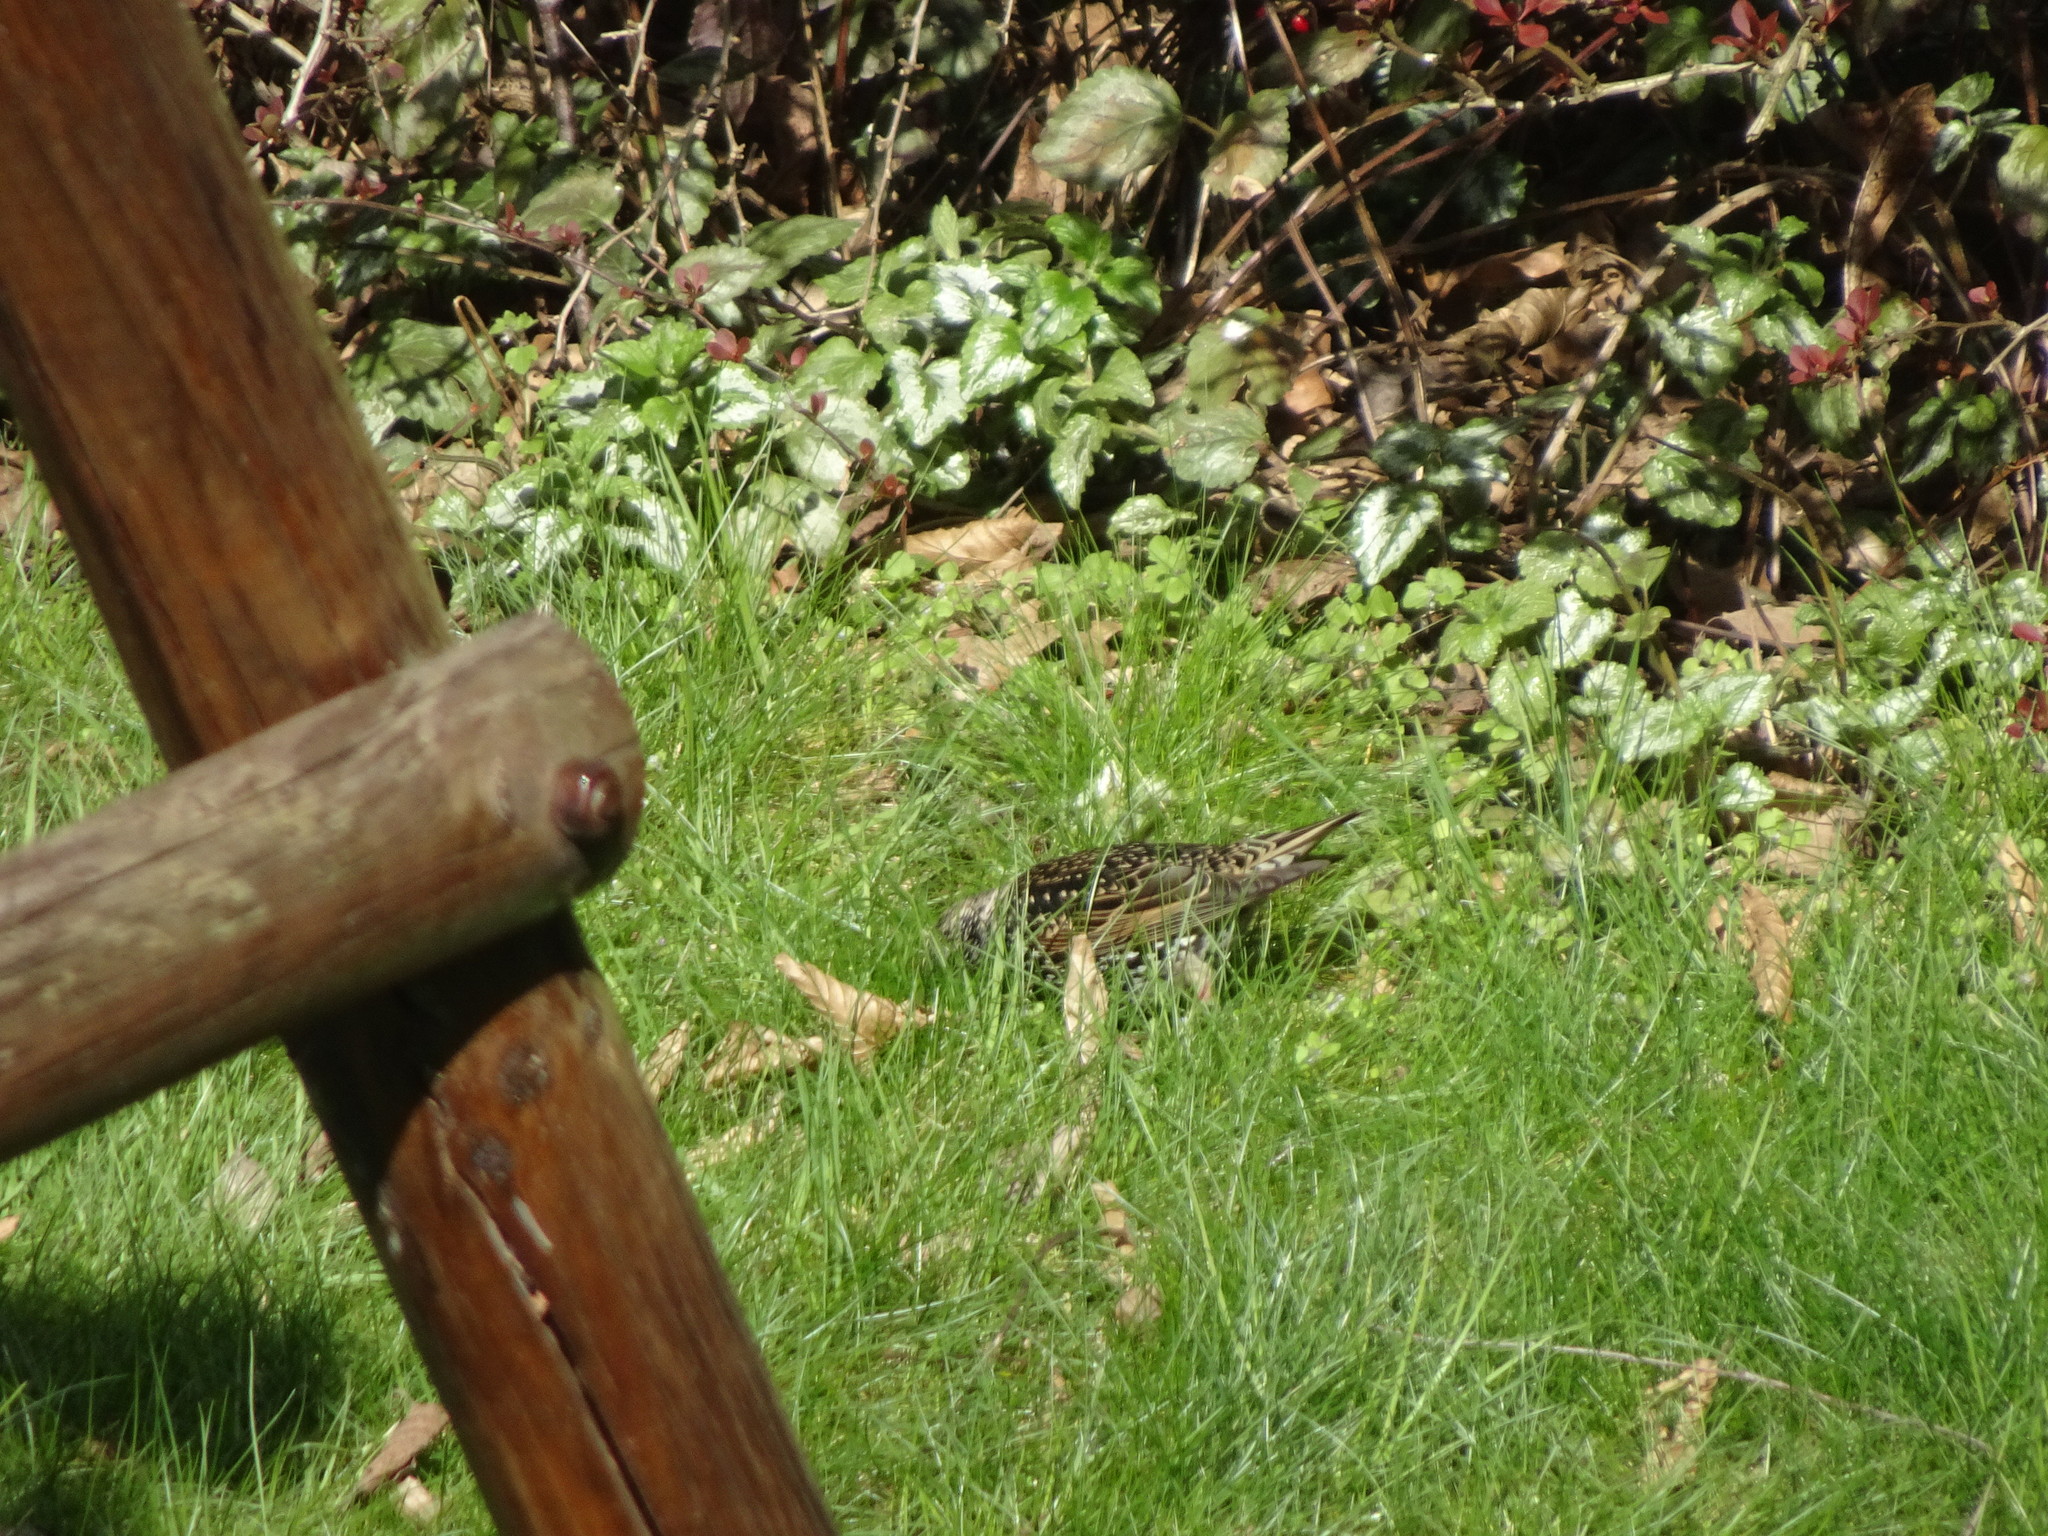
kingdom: Animalia
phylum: Chordata
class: Aves
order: Passeriformes
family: Sturnidae
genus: Sturnus
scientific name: Sturnus vulgaris
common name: Common starling
